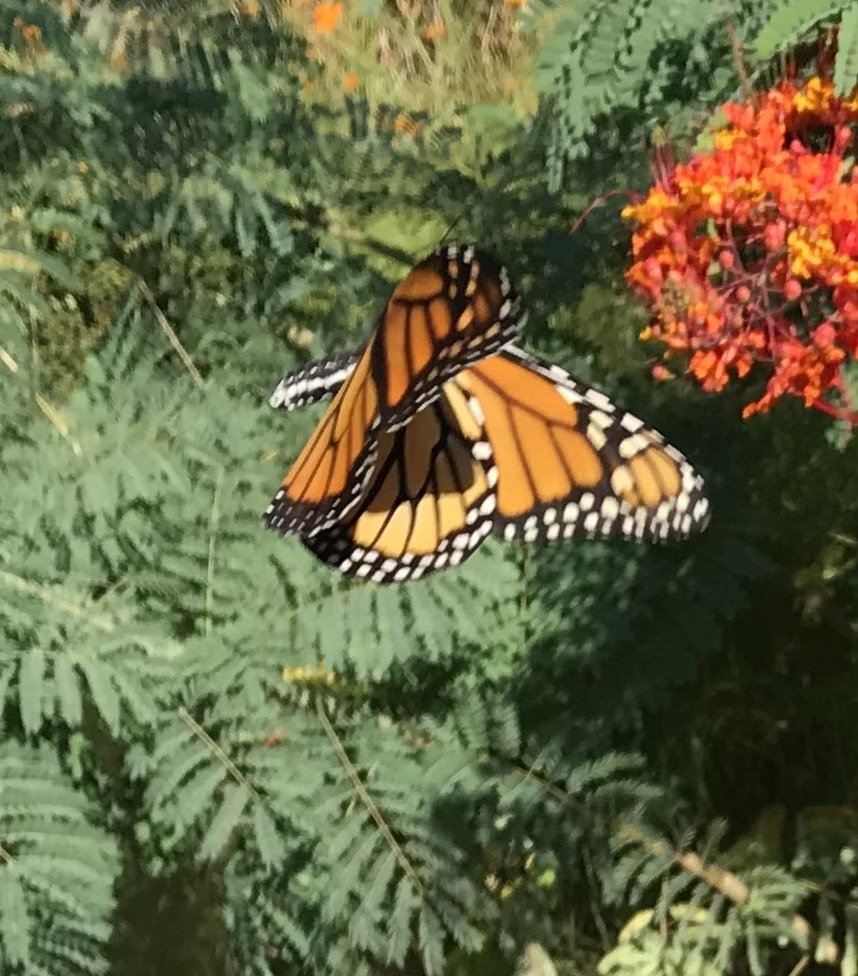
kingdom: Animalia
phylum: Arthropoda
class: Insecta
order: Lepidoptera
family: Nymphalidae
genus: Danaus
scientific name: Danaus plexippus
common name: Monarch
